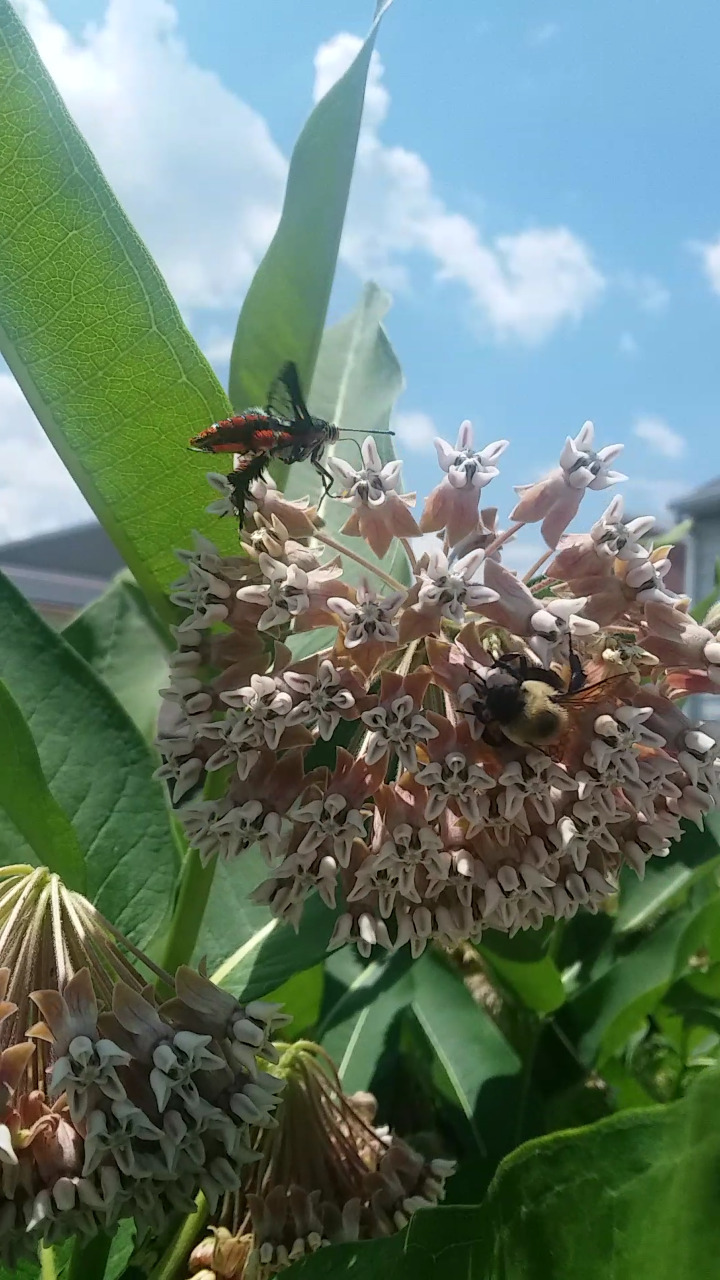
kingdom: Animalia
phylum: Arthropoda
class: Insecta
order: Lepidoptera
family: Sesiidae
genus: Eichlinia
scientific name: Eichlinia cucurbitae
